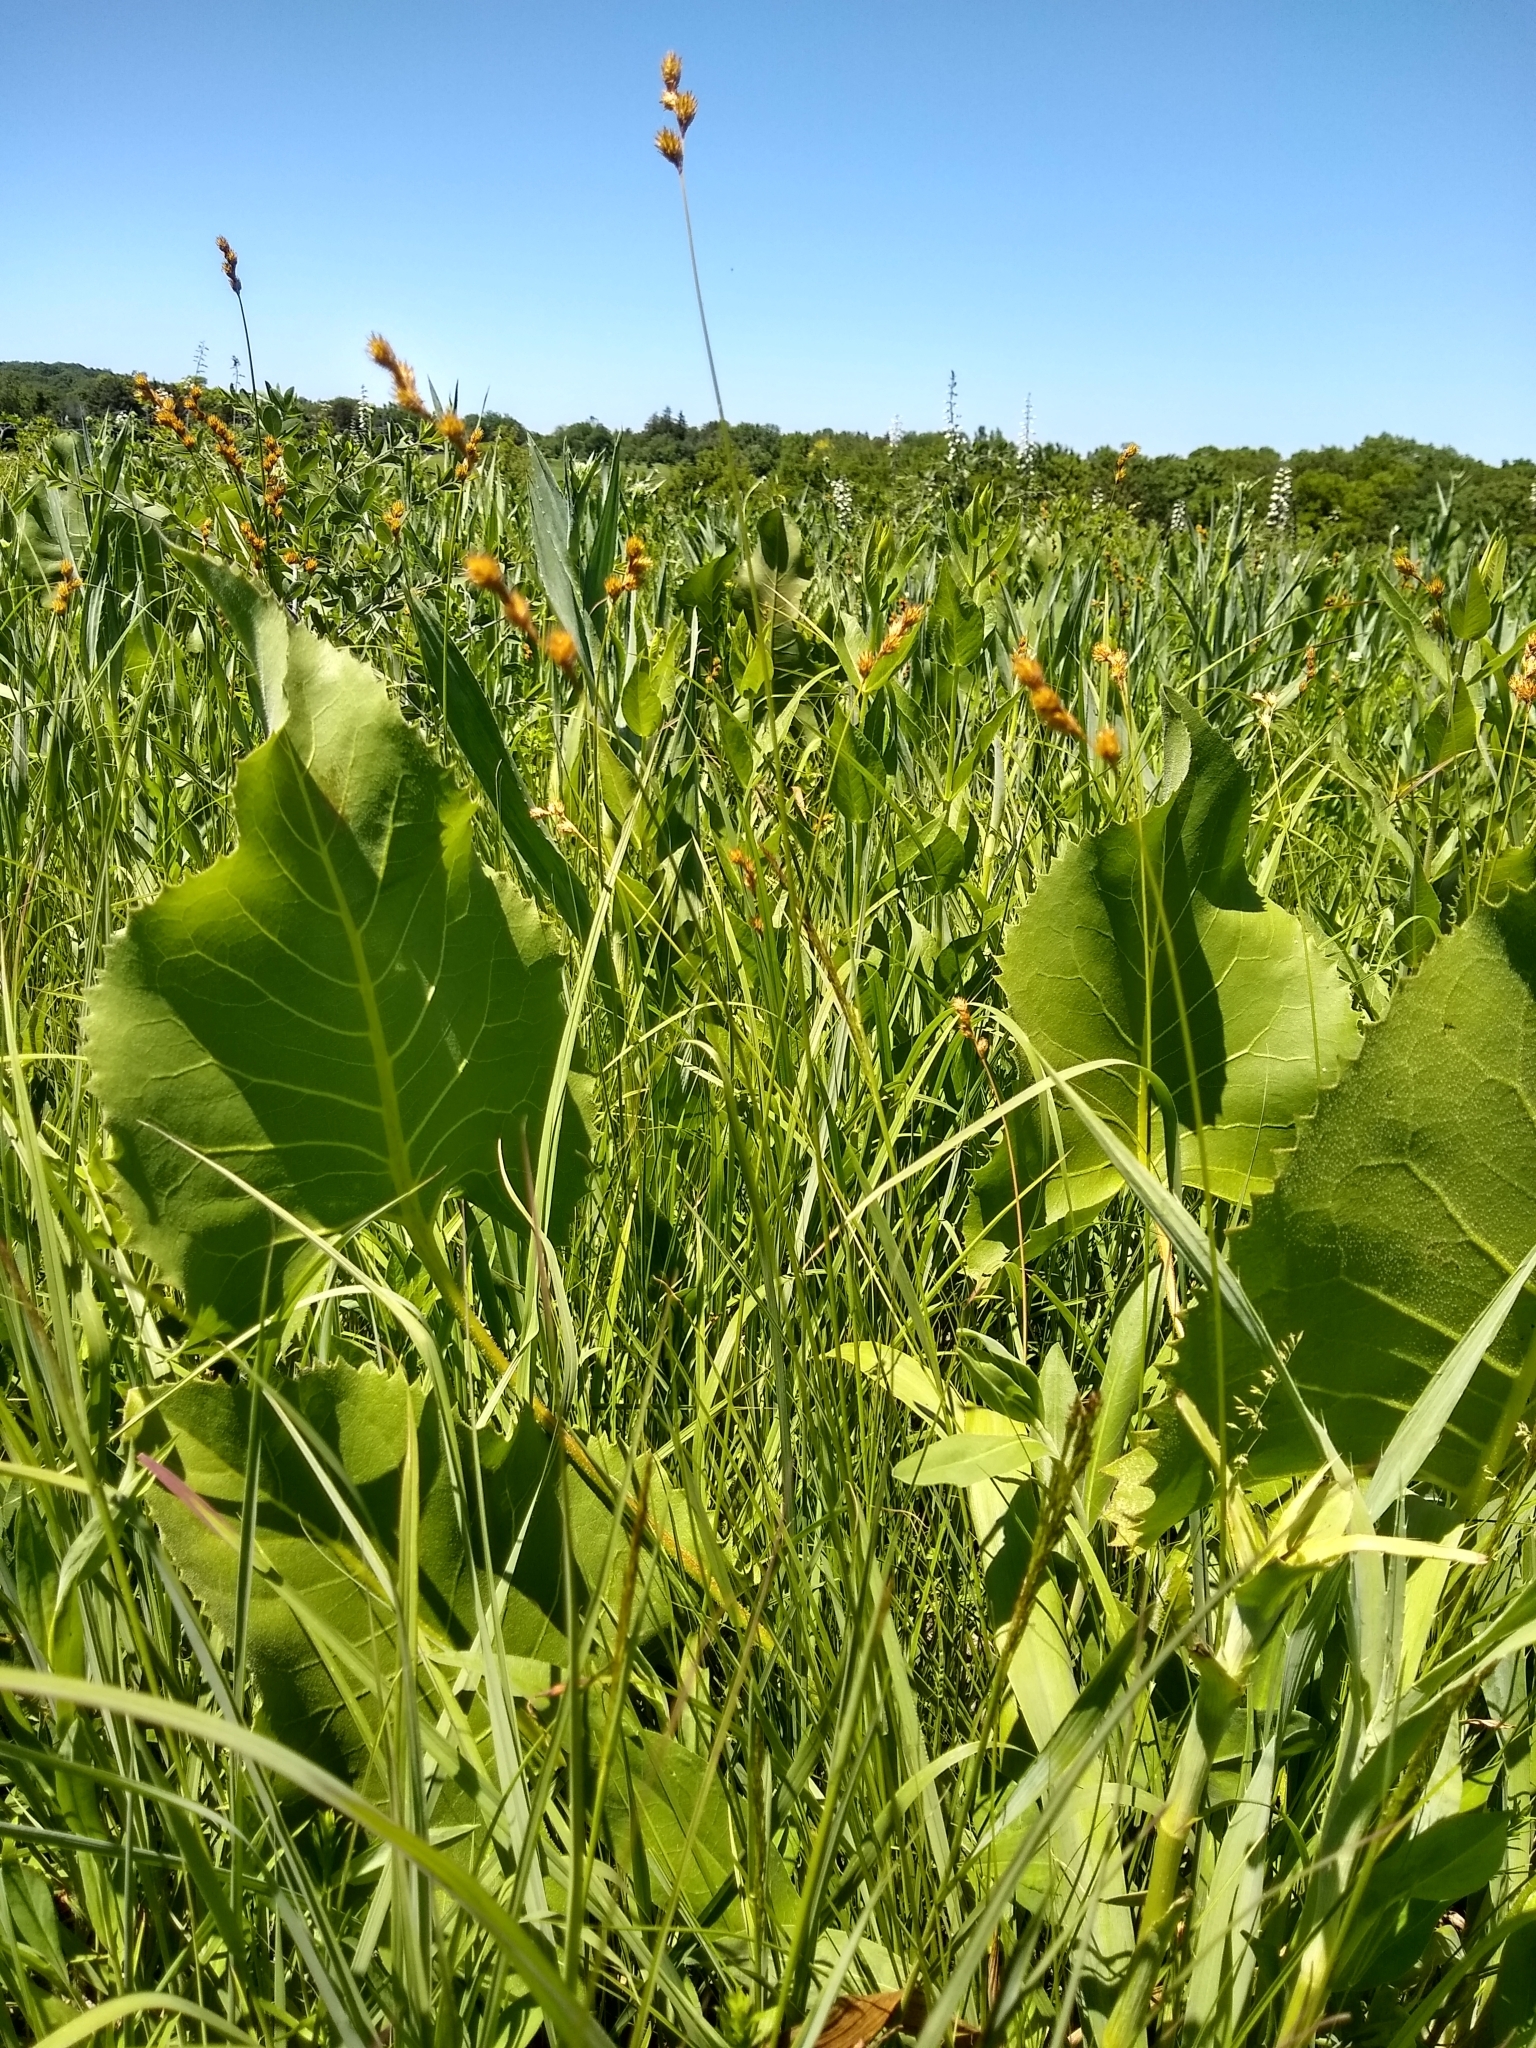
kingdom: Plantae
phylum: Tracheophyta
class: Magnoliopsida
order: Asterales
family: Asteraceae
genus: Silphium
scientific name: Silphium terebinthinaceum
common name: Basal-leaf rosinweed
